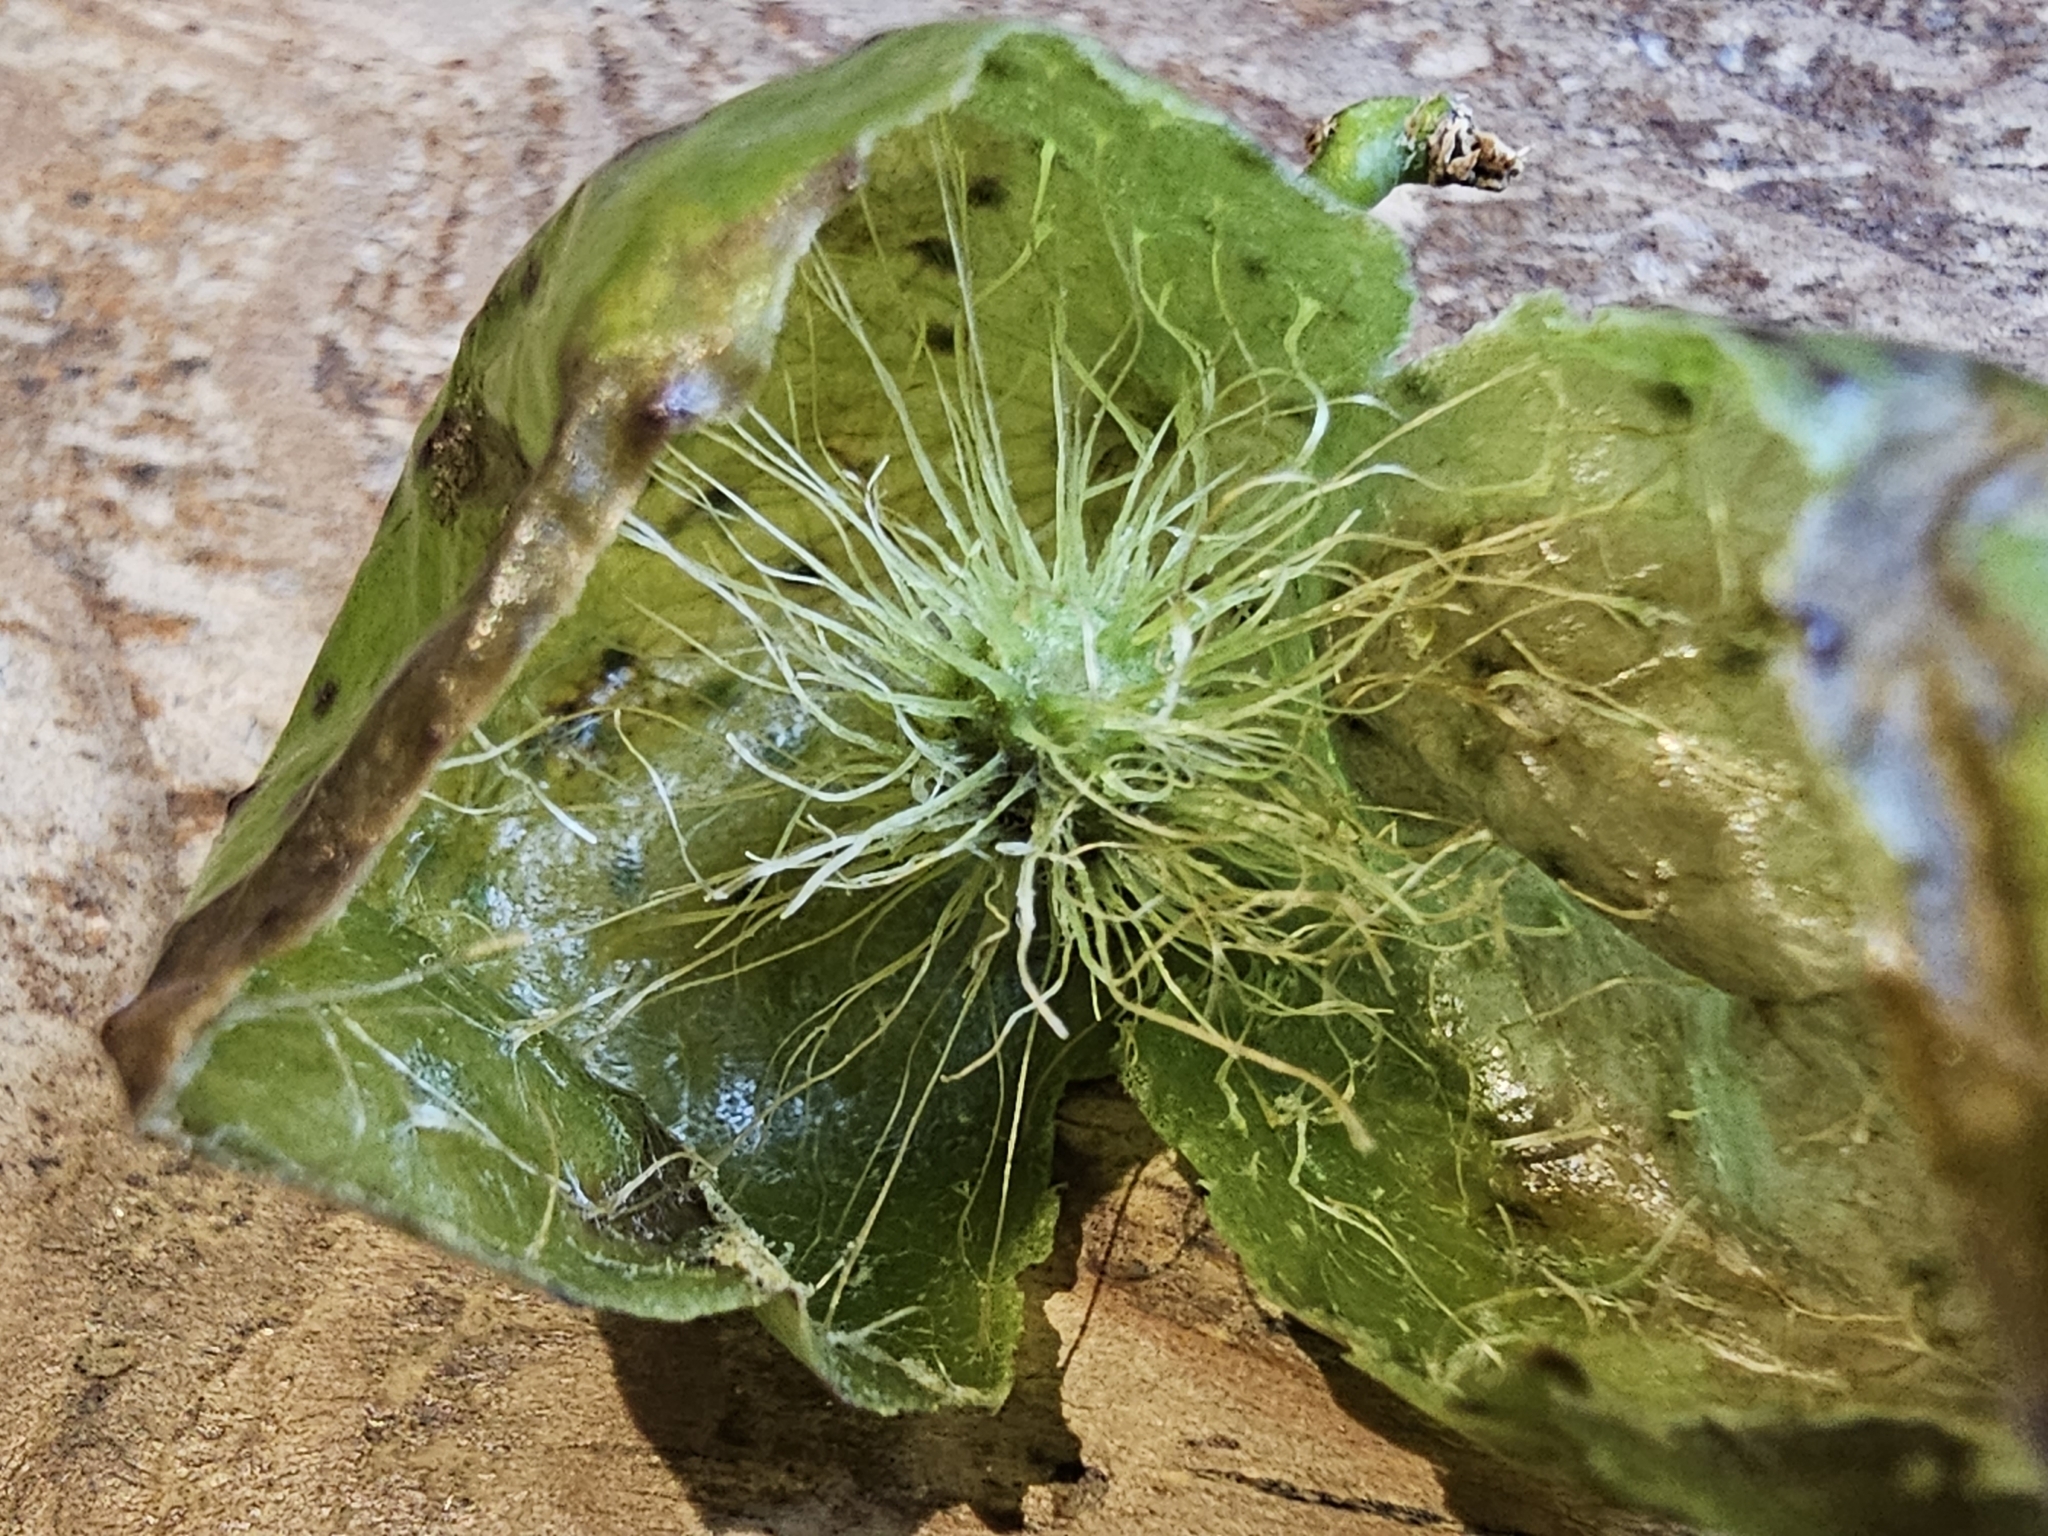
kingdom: Animalia
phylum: Arthropoda
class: Insecta
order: Hymenoptera
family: Cynipidae
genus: Amphibolips
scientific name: Amphibolips
